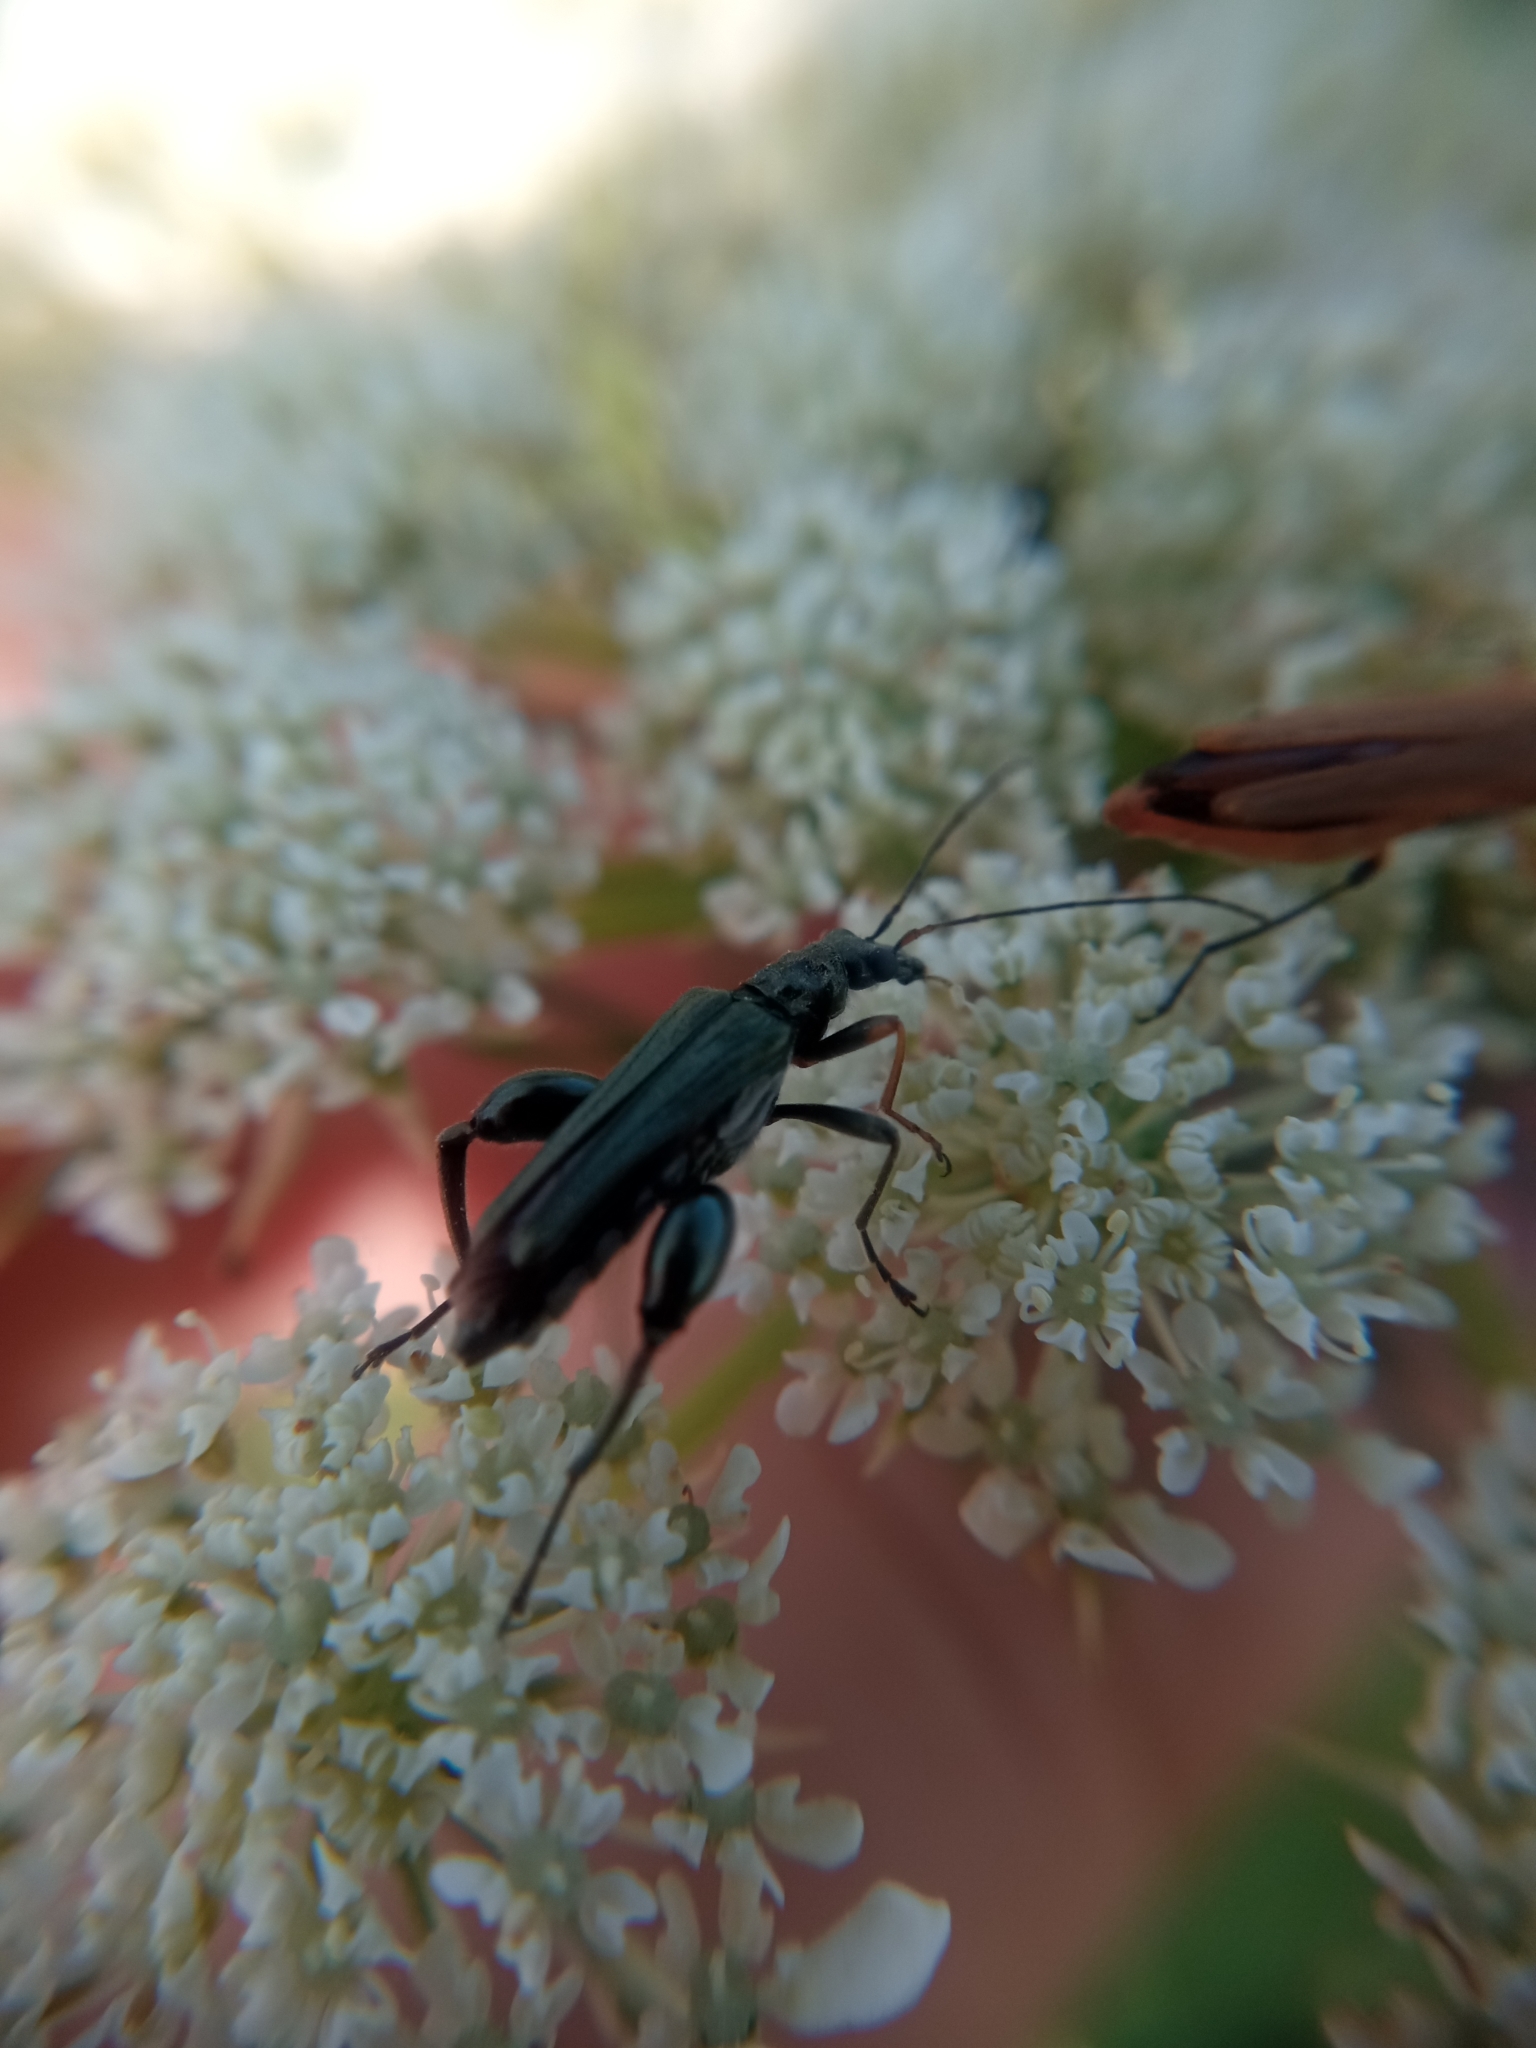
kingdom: Animalia
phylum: Arthropoda
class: Insecta
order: Coleoptera
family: Oedemeridae
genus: Oedemera
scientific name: Oedemera flavipes
